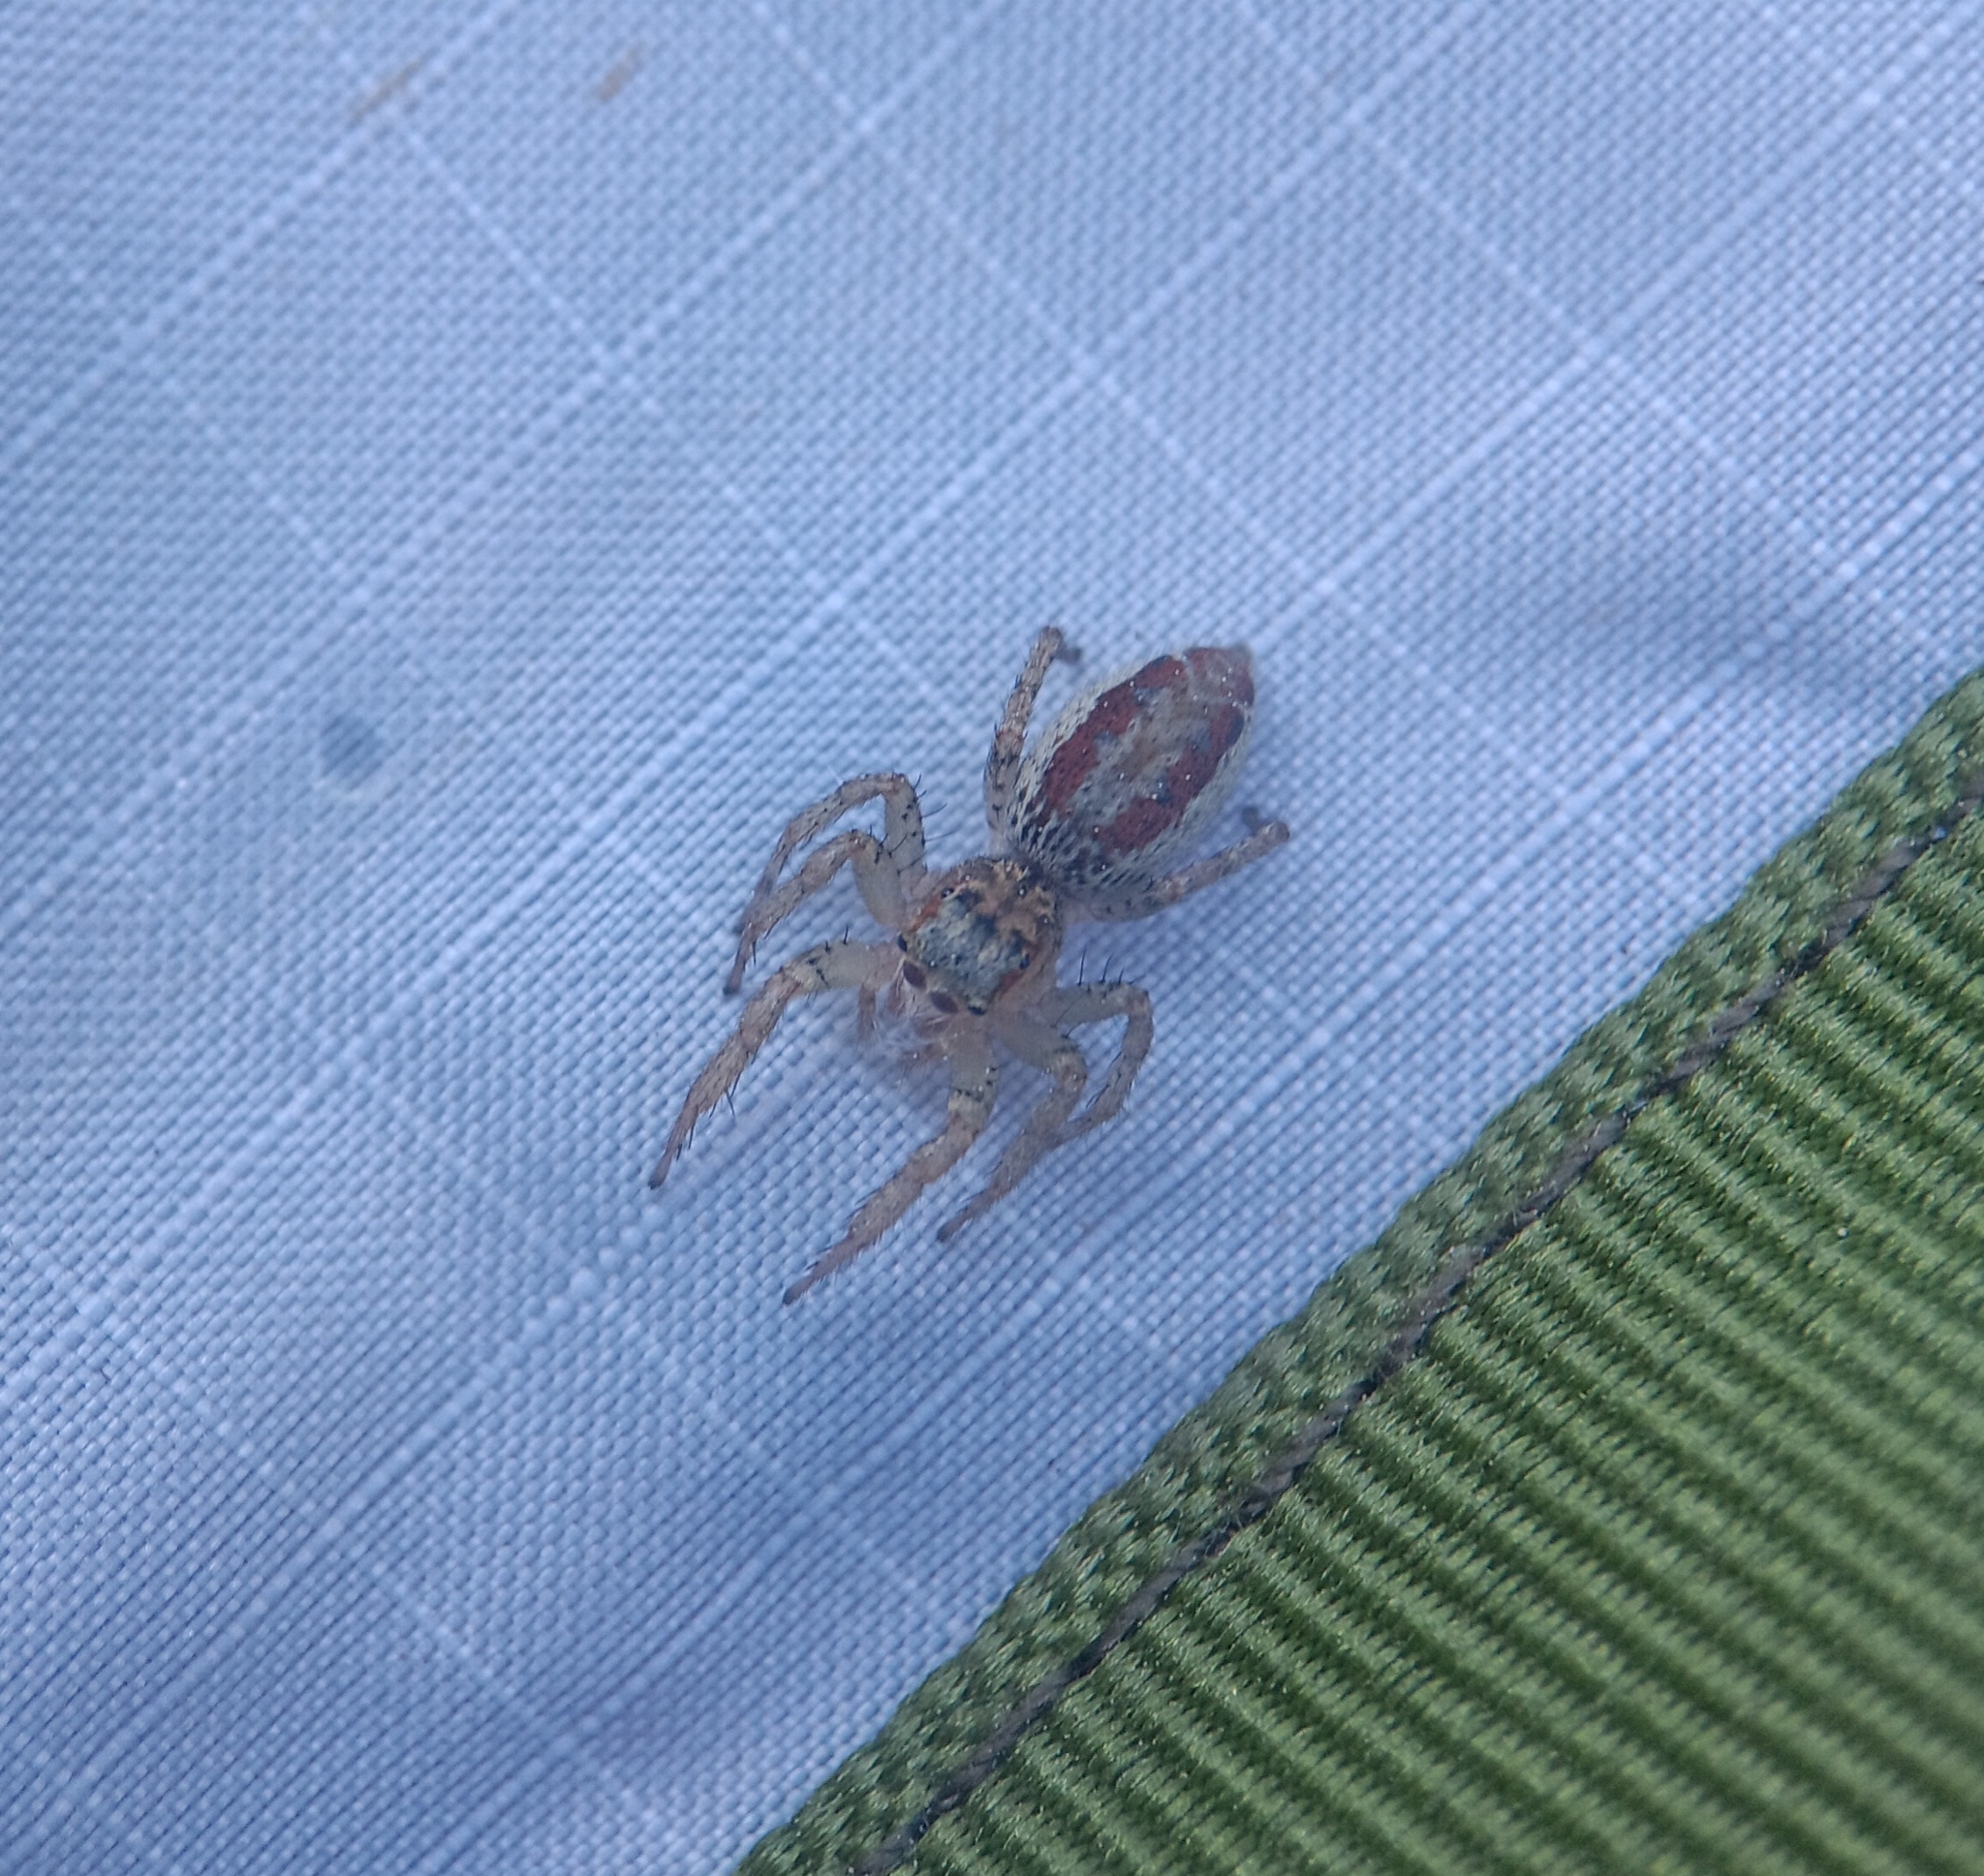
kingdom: Animalia
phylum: Arthropoda
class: Arachnida
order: Araneae
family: Salticidae
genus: Maevia
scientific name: Maevia inclemens
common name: Dimorphic jumper
